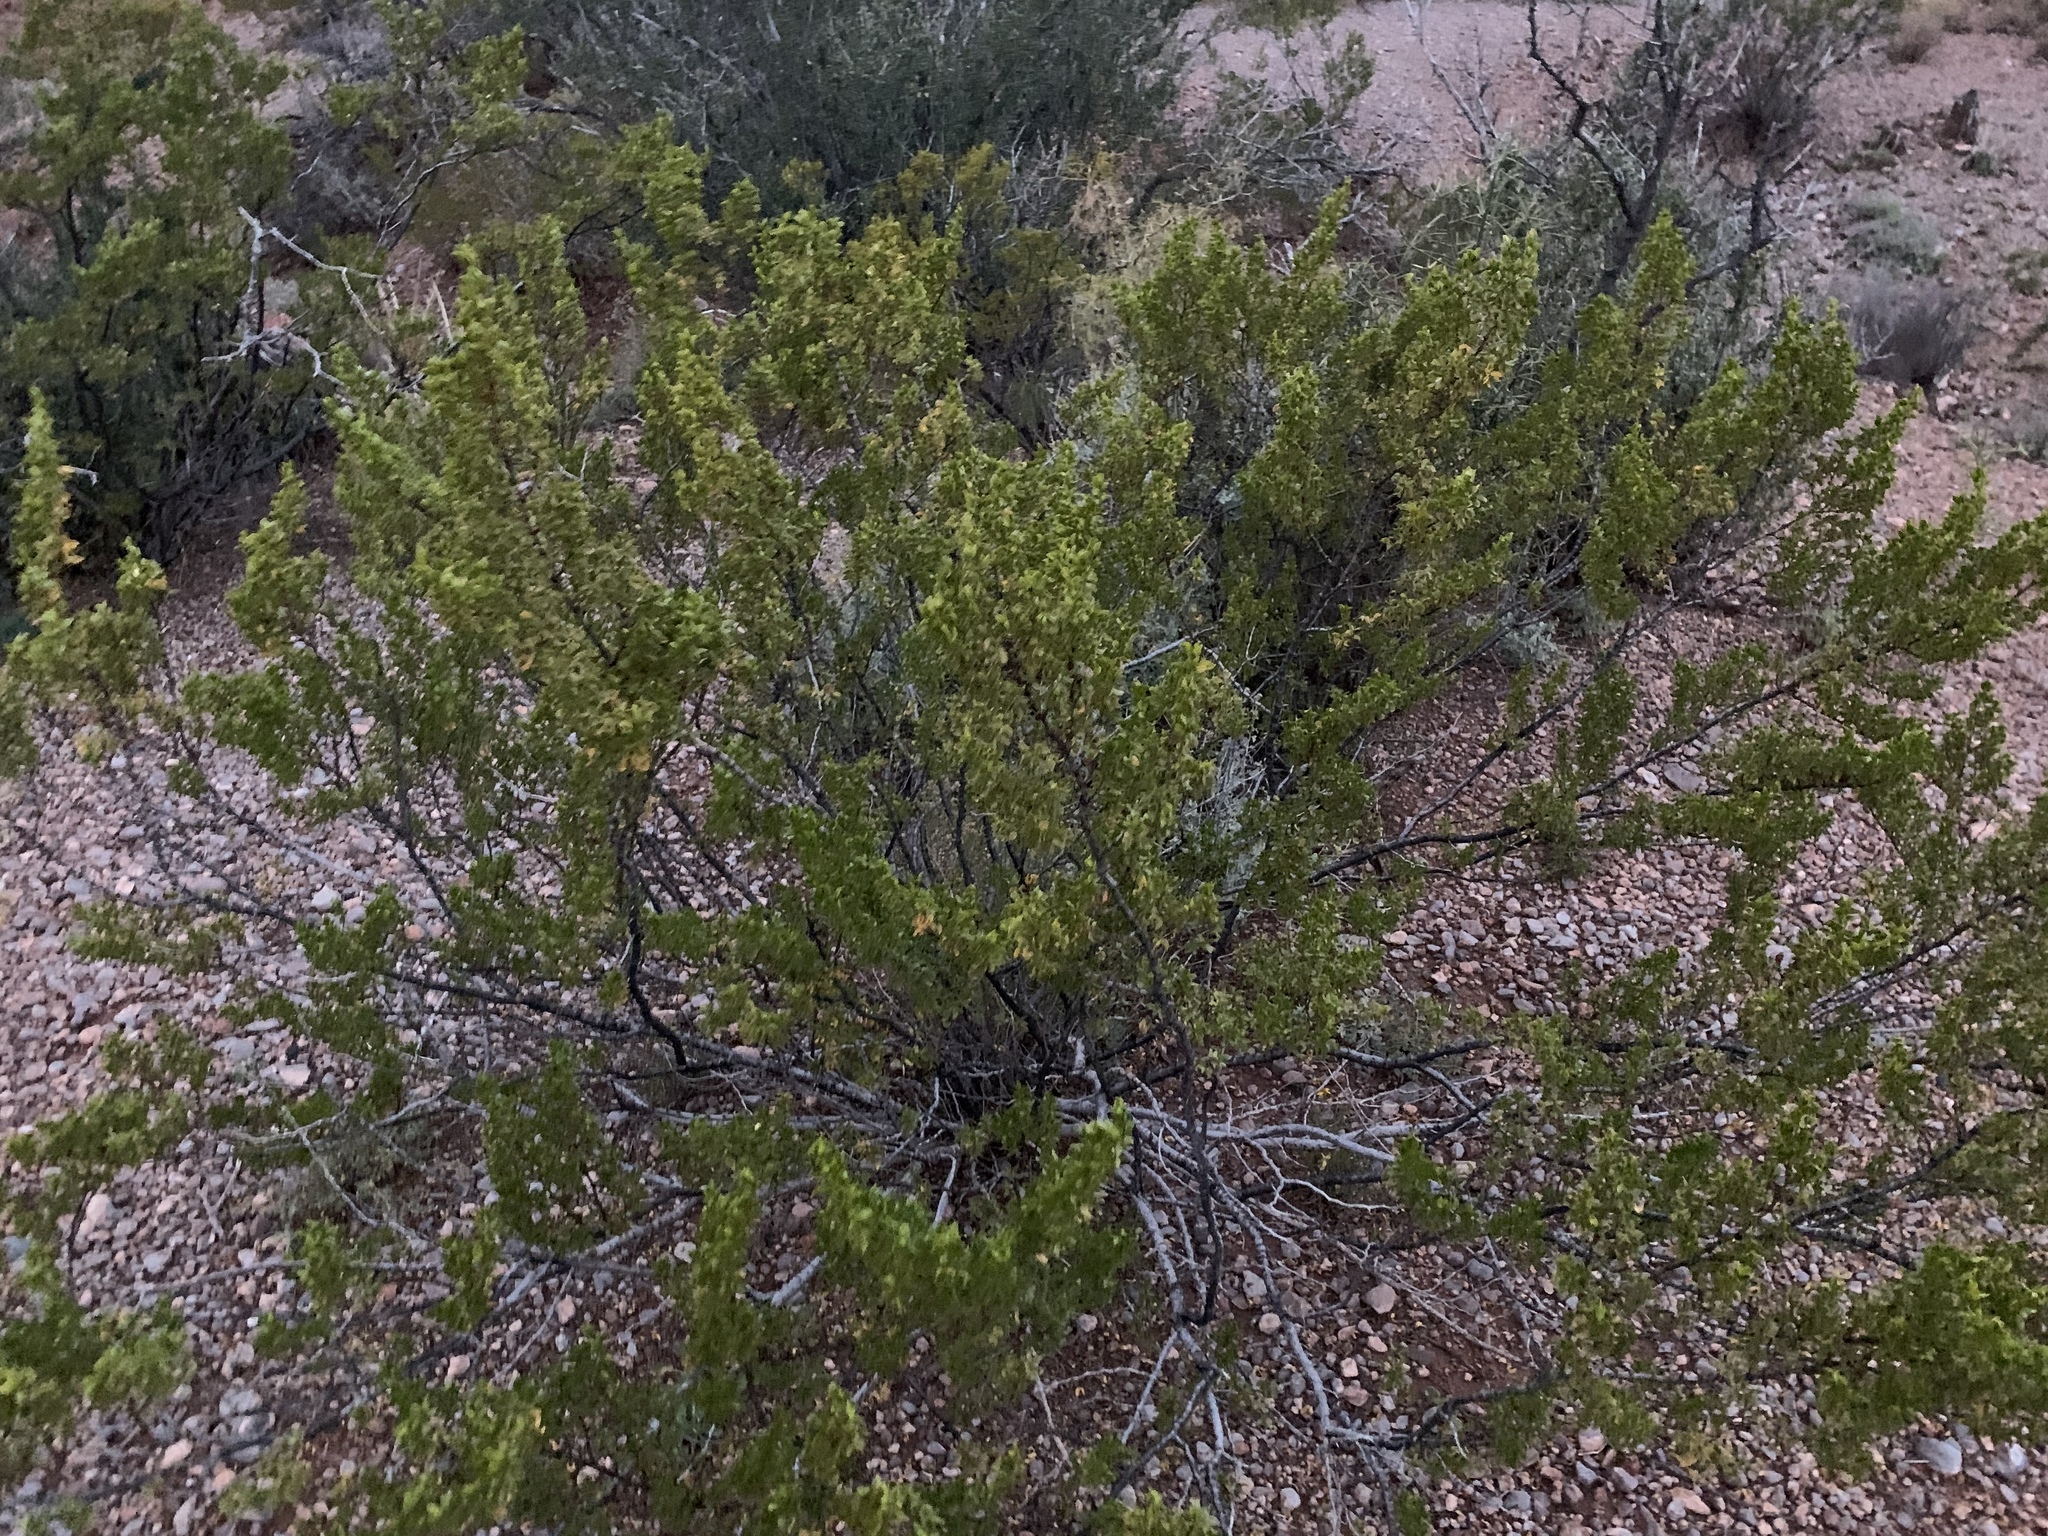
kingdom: Plantae
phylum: Tracheophyta
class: Magnoliopsida
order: Zygophyllales
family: Zygophyllaceae
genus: Larrea
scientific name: Larrea tridentata
